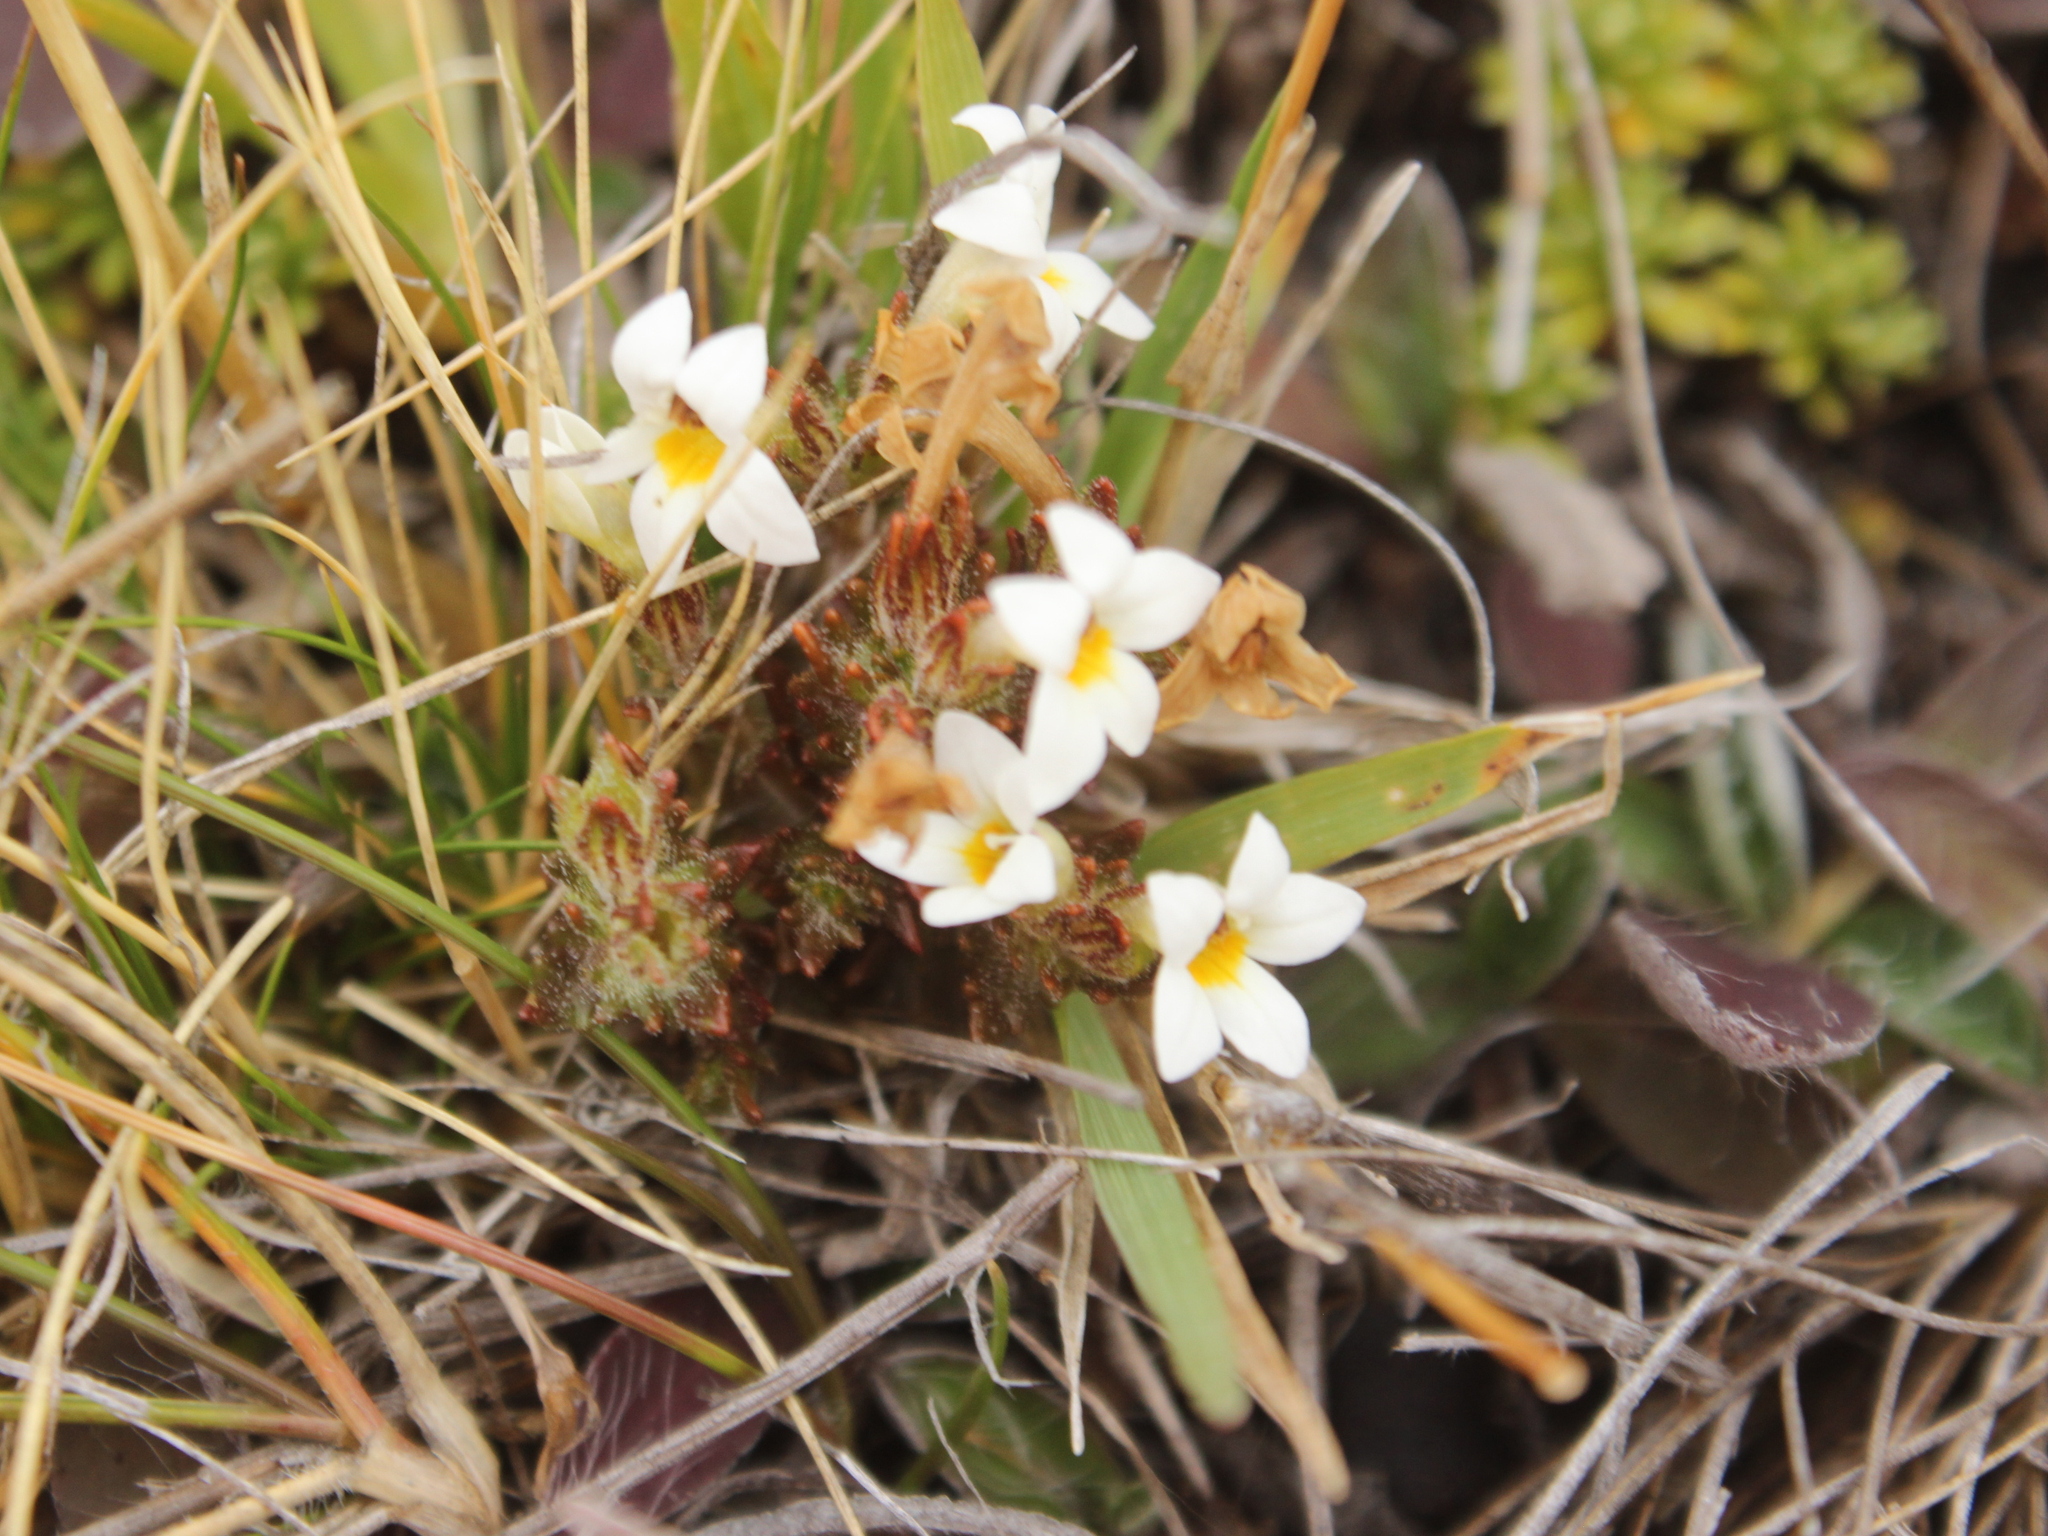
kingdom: Plantae
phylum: Tracheophyta
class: Magnoliopsida
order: Lamiales
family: Orobanchaceae
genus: Euphrasia
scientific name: Euphrasia zelandica
